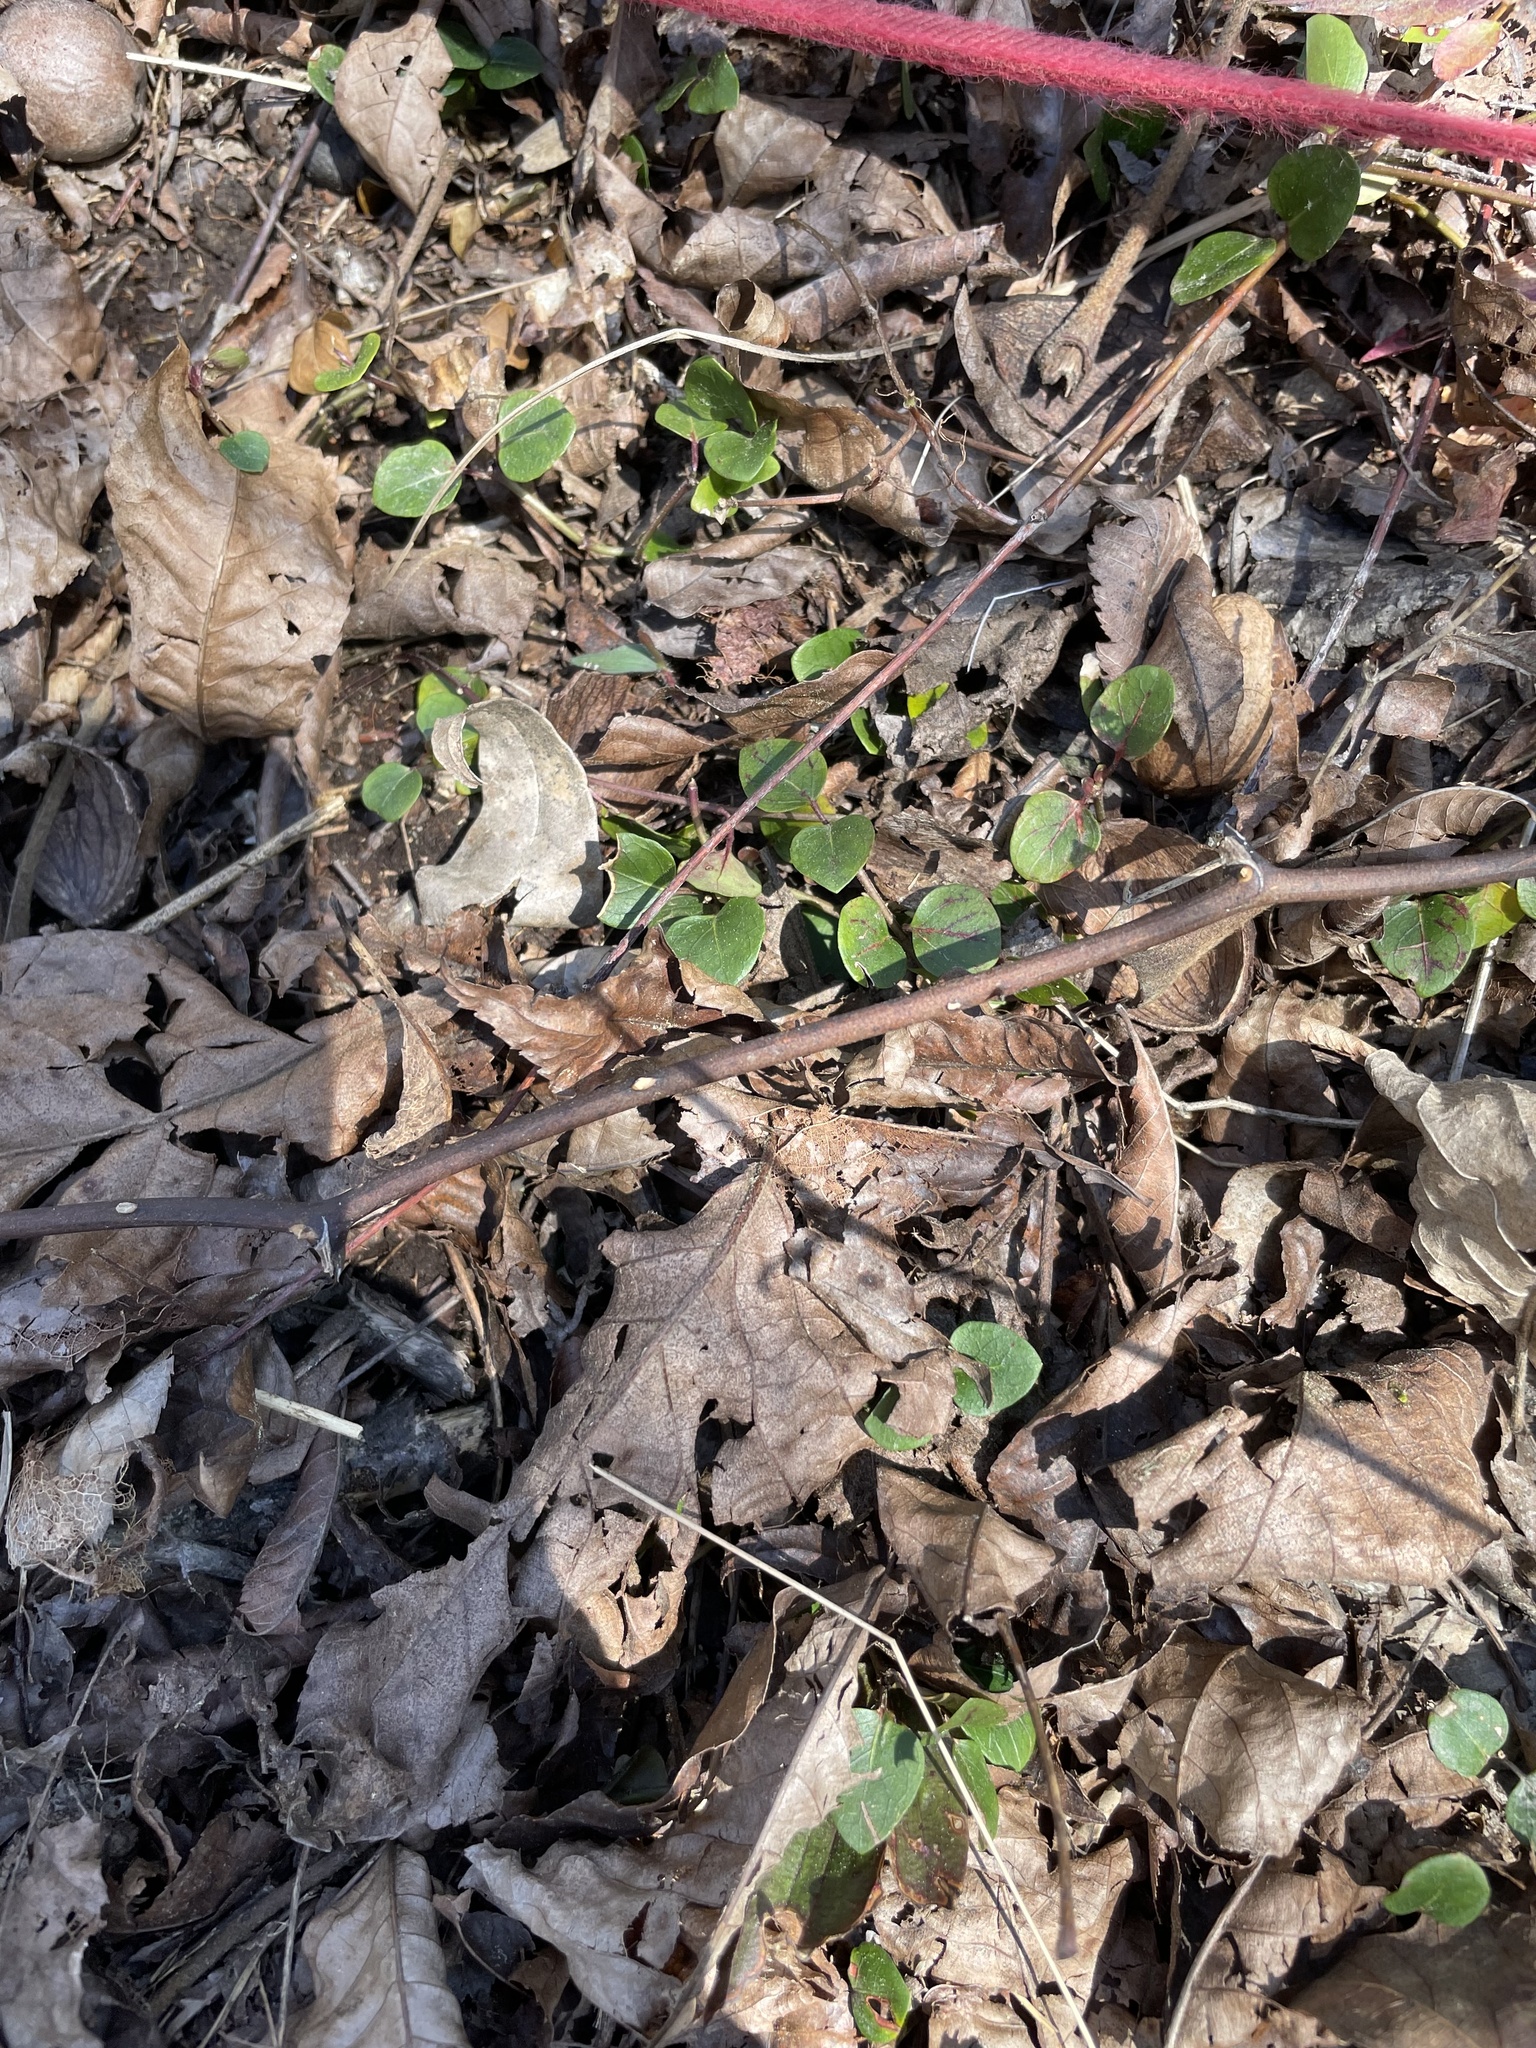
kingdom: Plantae
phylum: Tracheophyta
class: Magnoliopsida
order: Gentianales
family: Rubiaceae
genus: Mitchella
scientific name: Mitchella repens
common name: Partridge-berry
